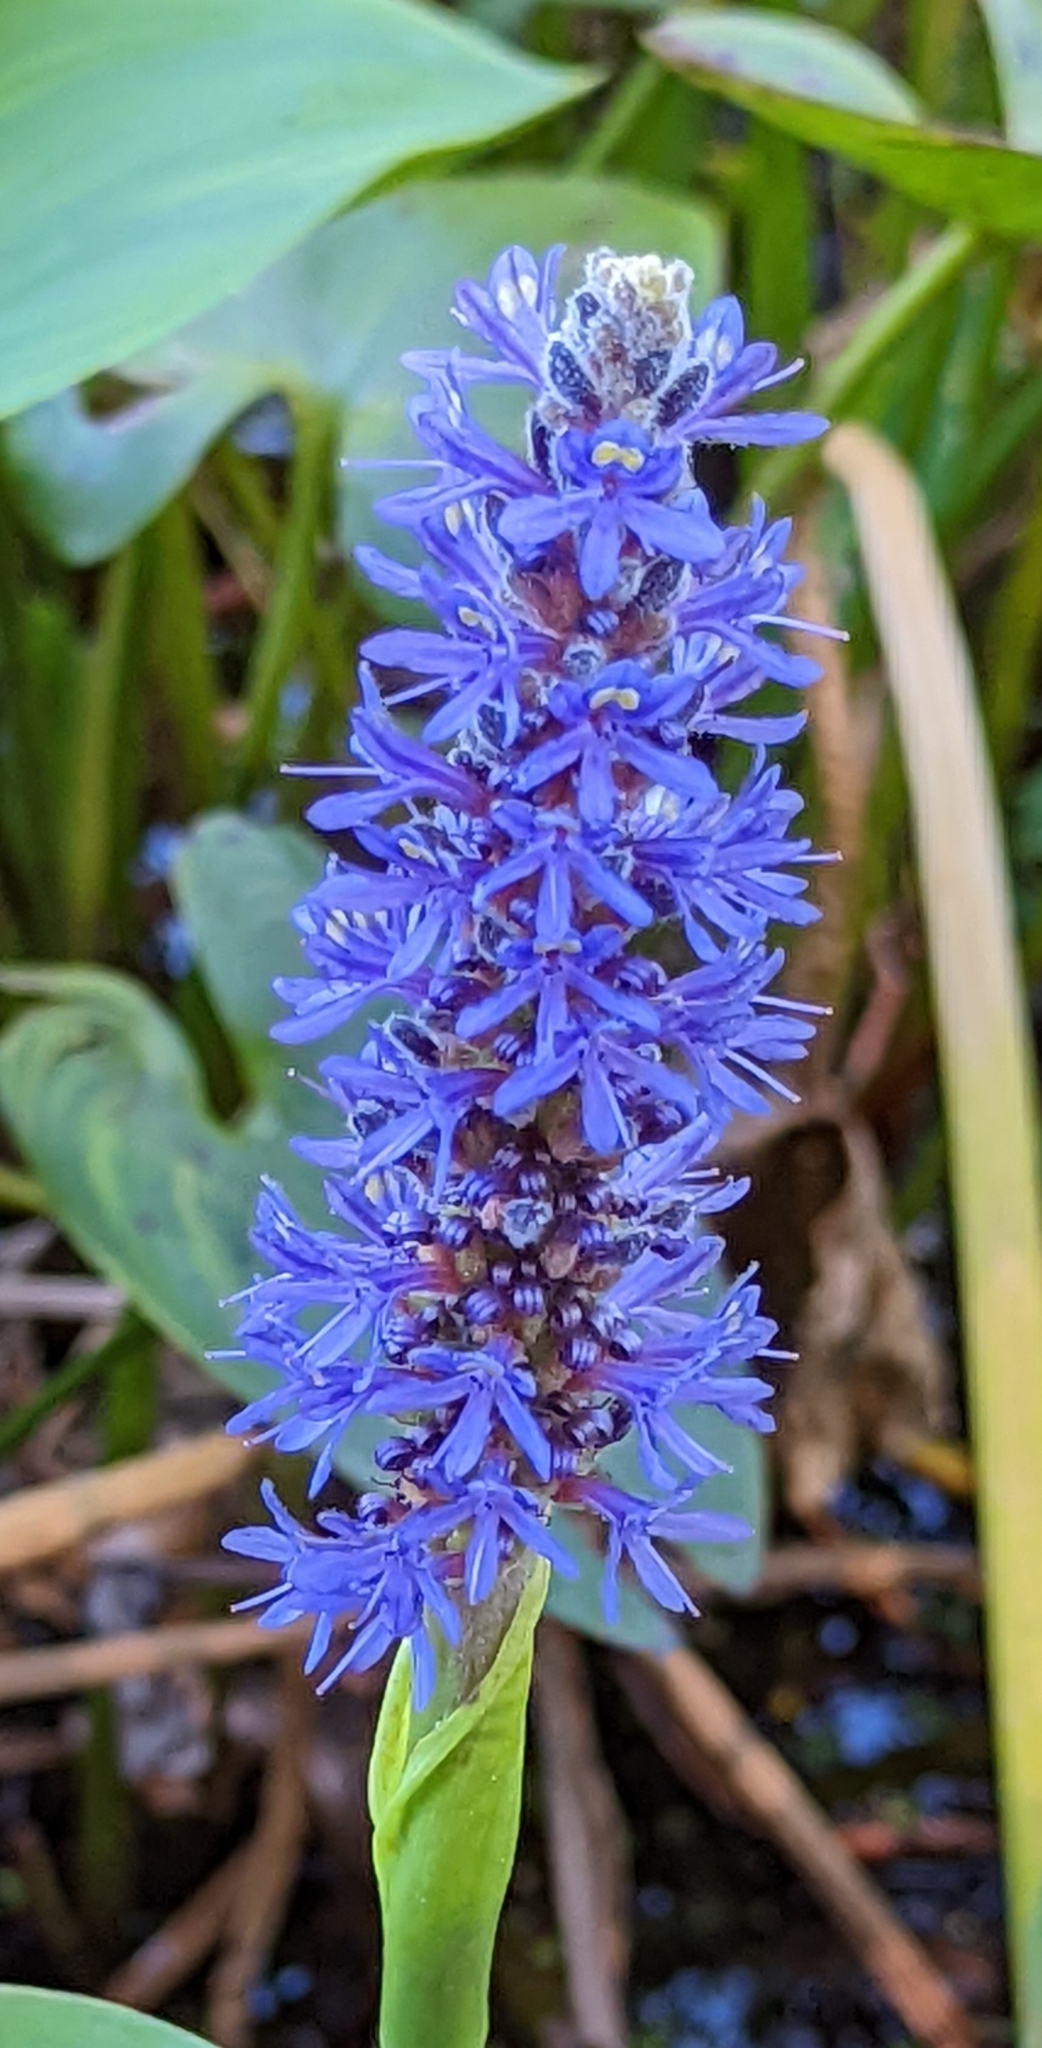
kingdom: Plantae
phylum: Tracheophyta
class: Liliopsida
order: Commelinales
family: Pontederiaceae
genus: Pontederia
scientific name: Pontederia cordata
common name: Pickerelweed
